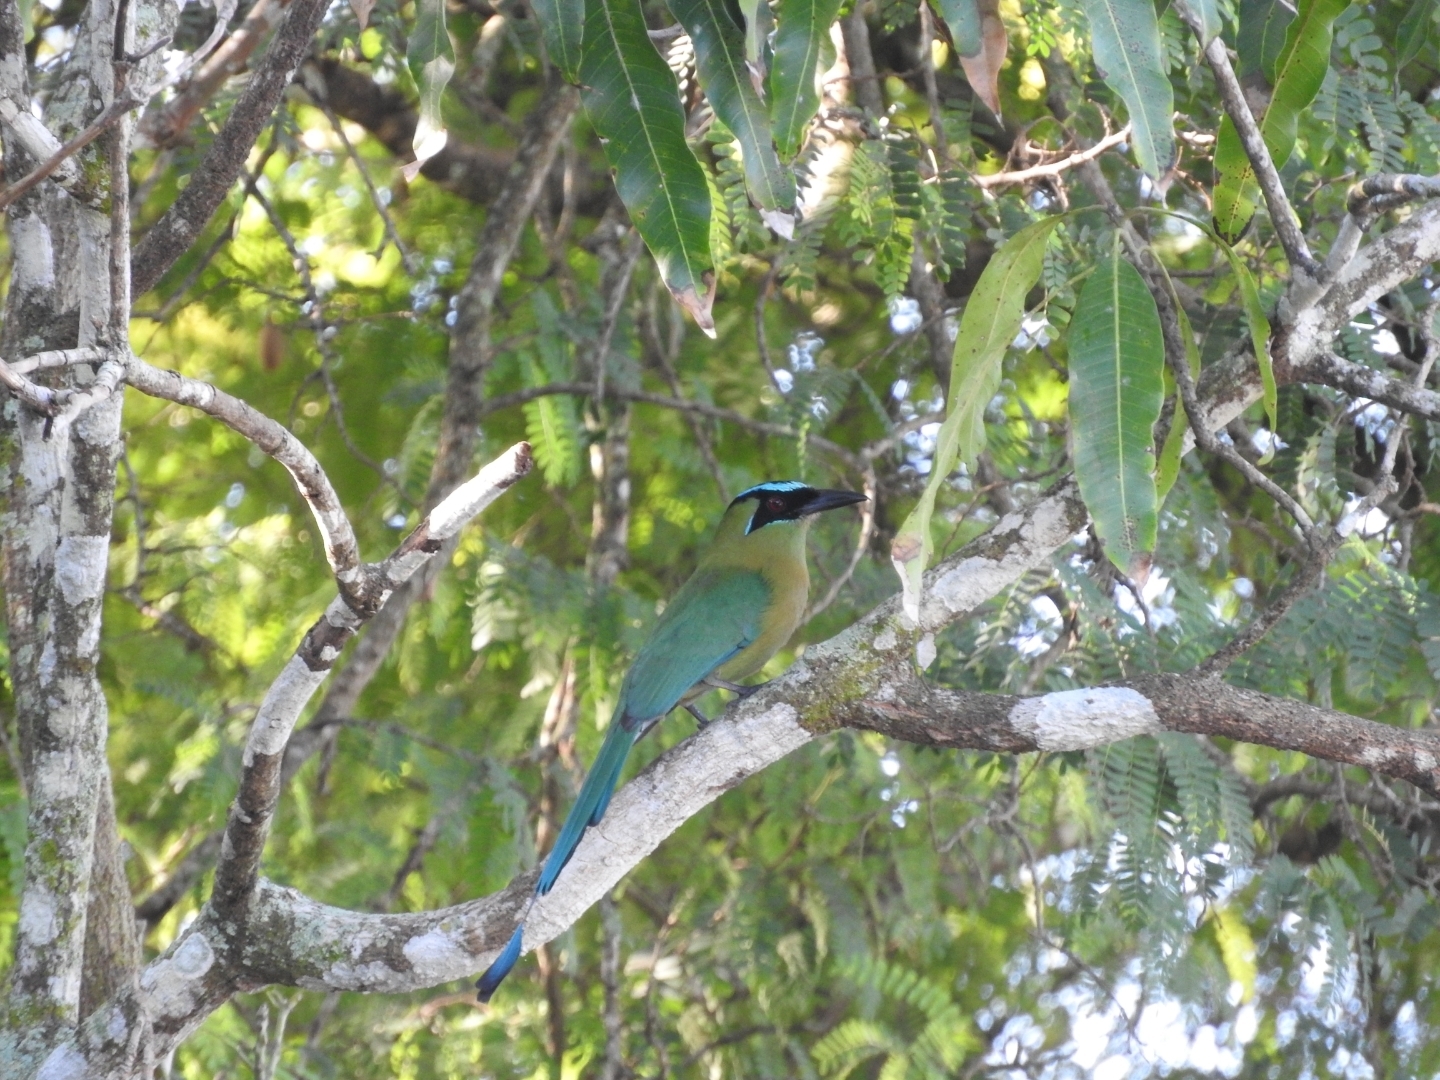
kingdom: Animalia
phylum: Chordata
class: Aves
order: Coraciiformes
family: Momotidae
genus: Momotus
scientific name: Momotus lessonii
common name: Lesson's motmot
